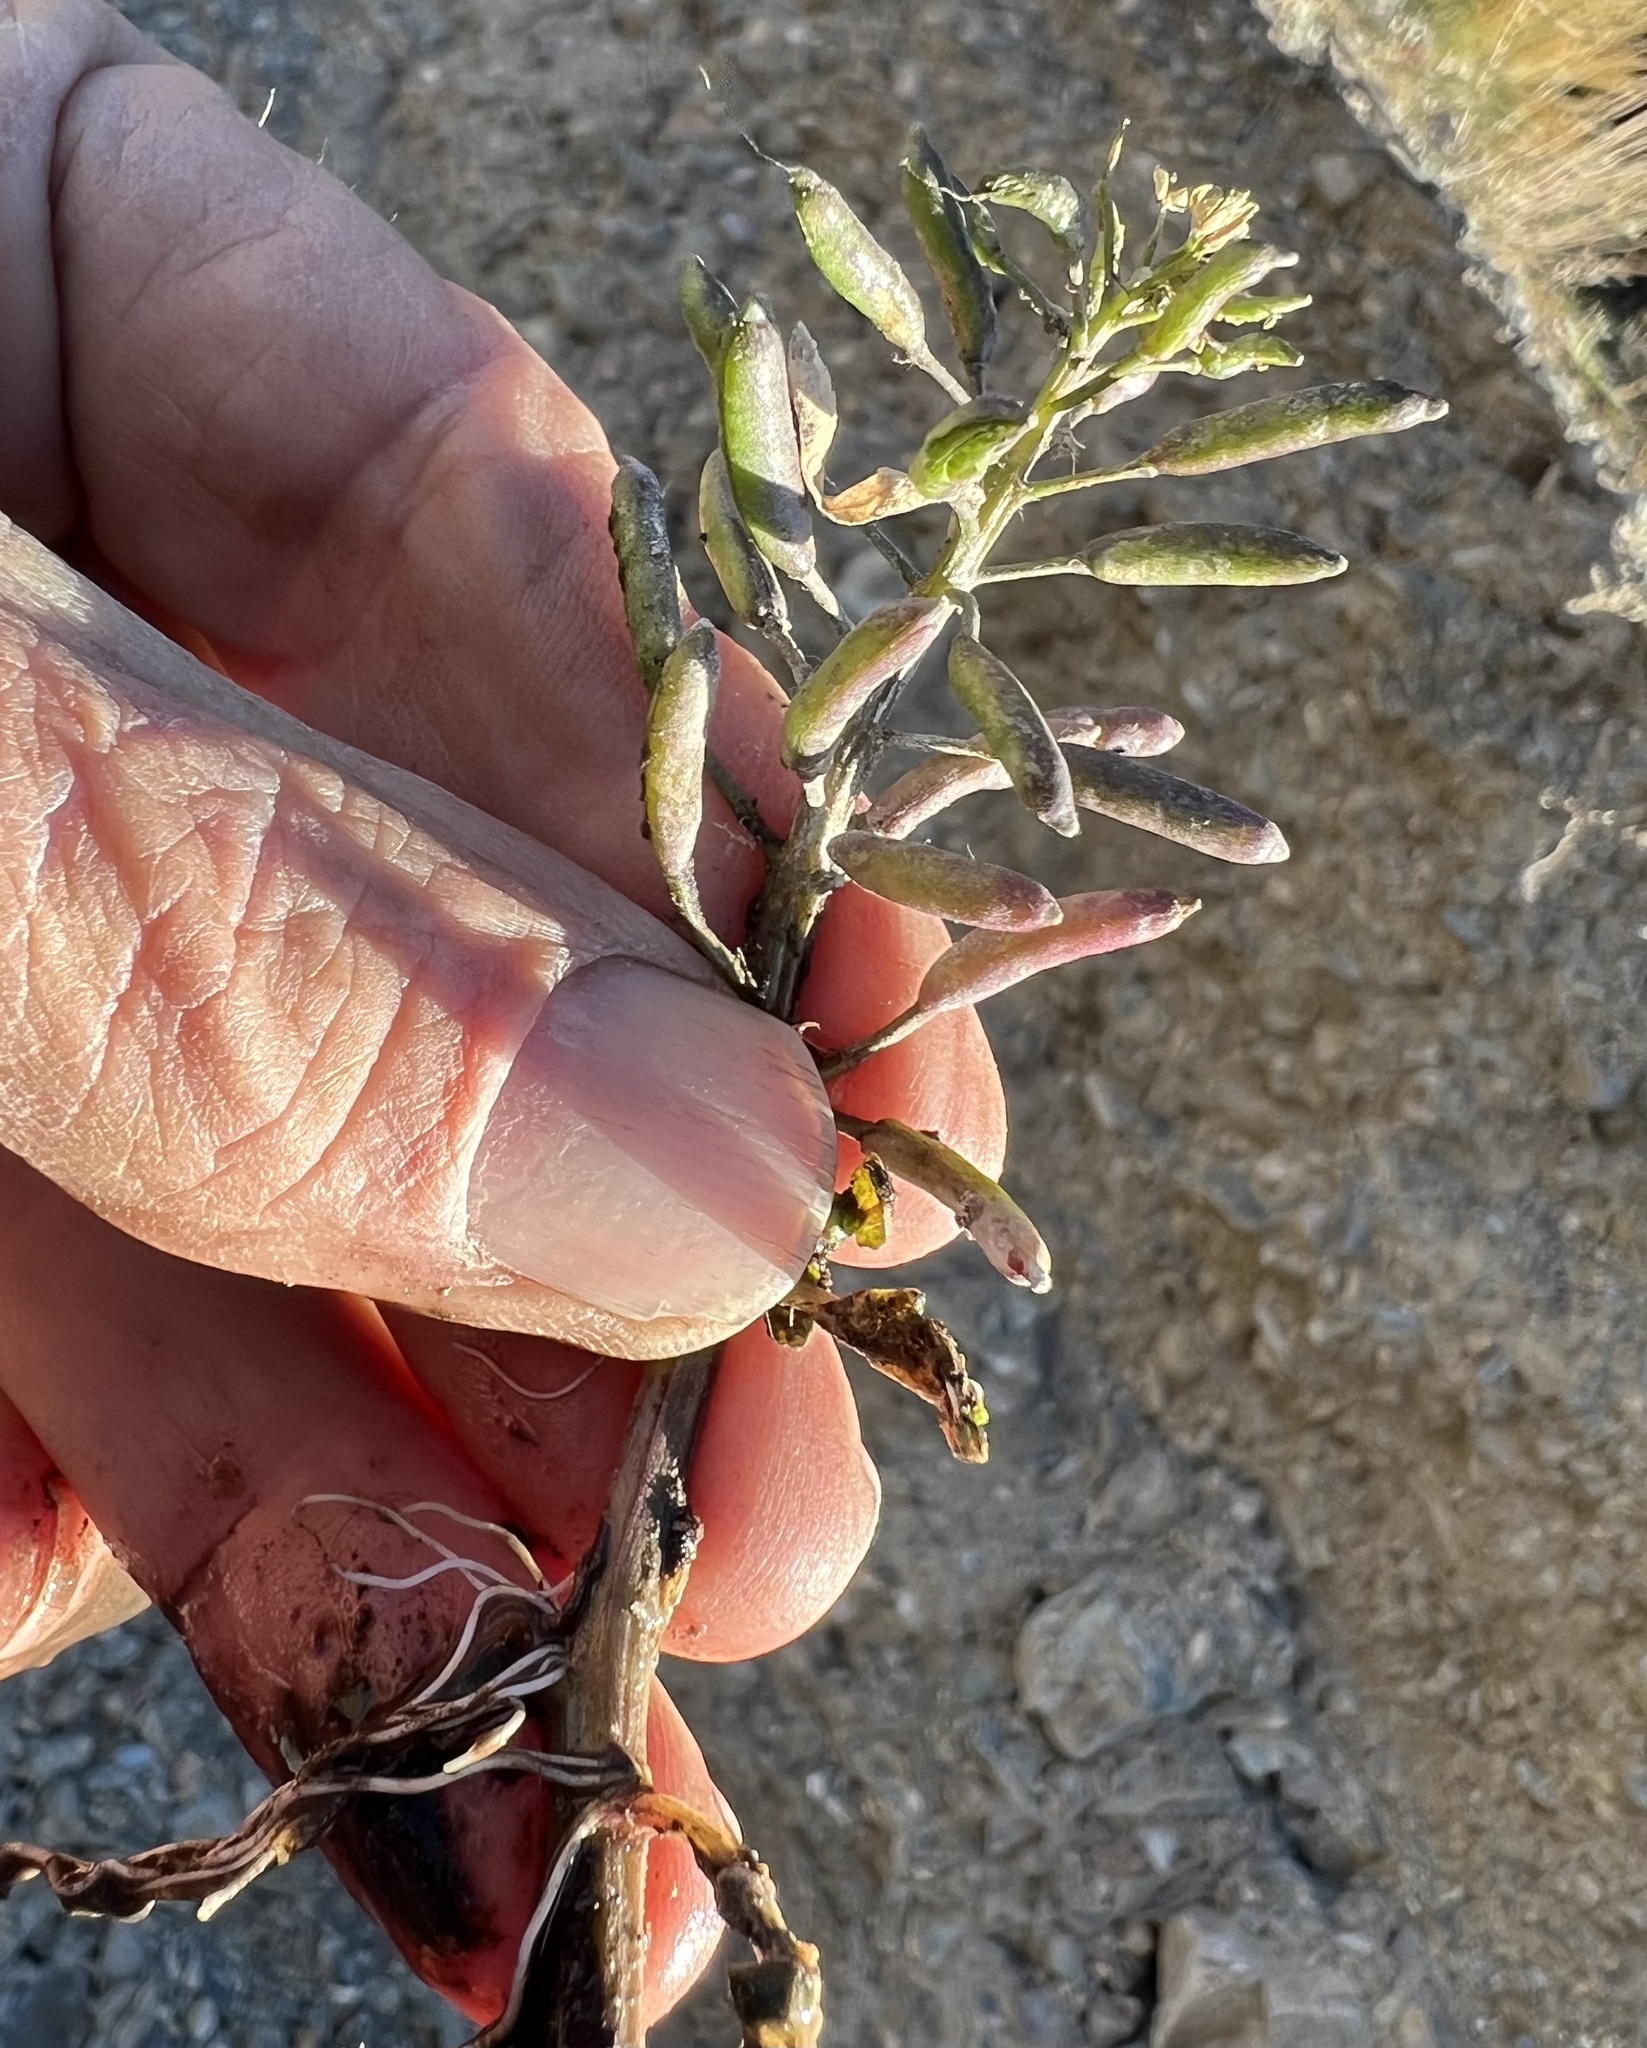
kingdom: Plantae
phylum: Tracheophyta
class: Magnoliopsida
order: Brassicales
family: Brassicaceae
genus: Nasturtium
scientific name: Nasturtium officinale
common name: Watercress
